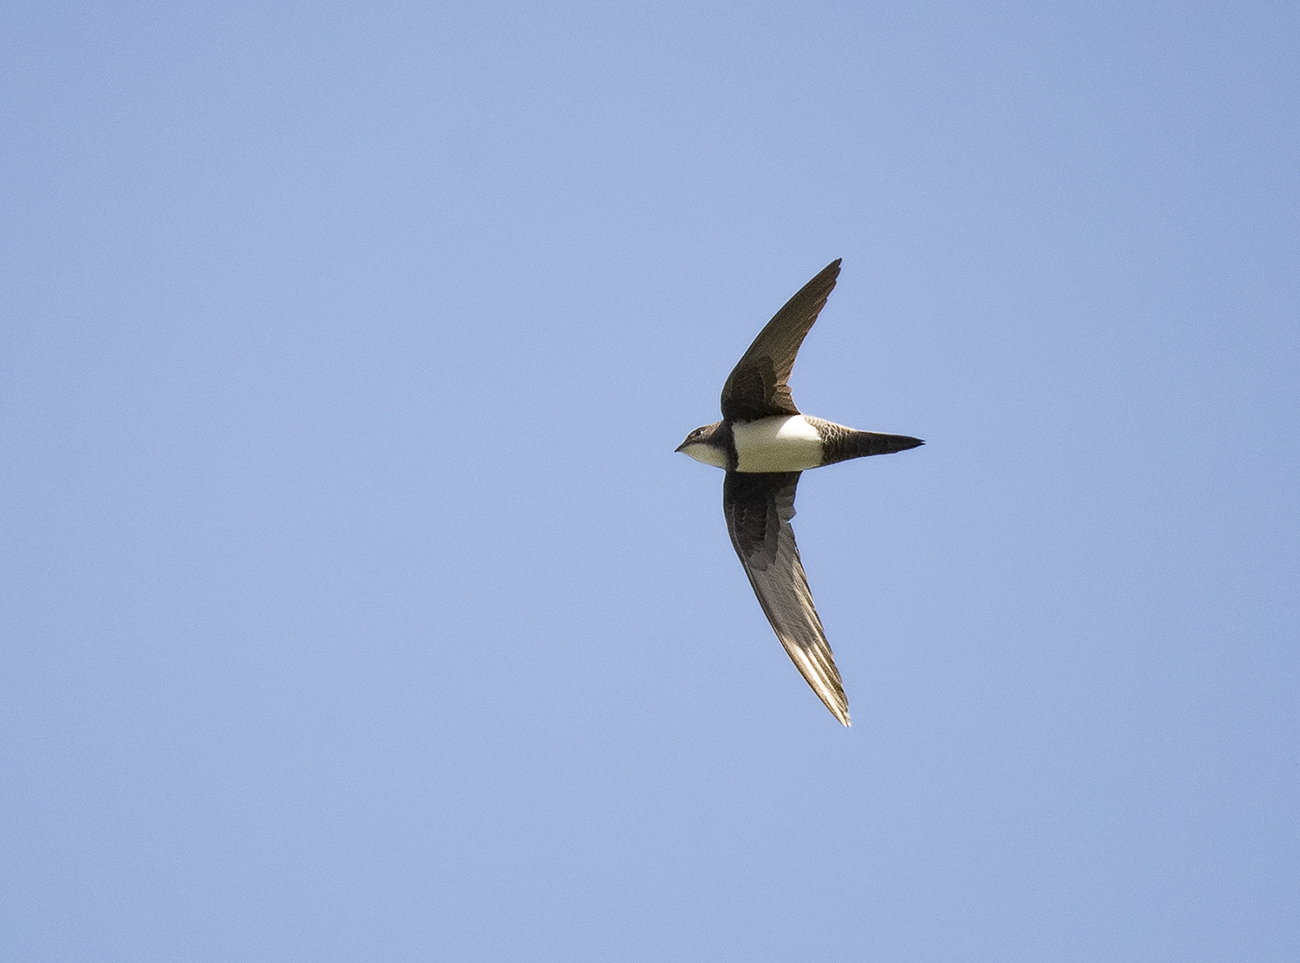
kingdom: Animalia
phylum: Chordata
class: Aves
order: Apodiformes
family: Apodidae
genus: Tachymarptis
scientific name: Tachymarptis melba
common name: Alpine swift
